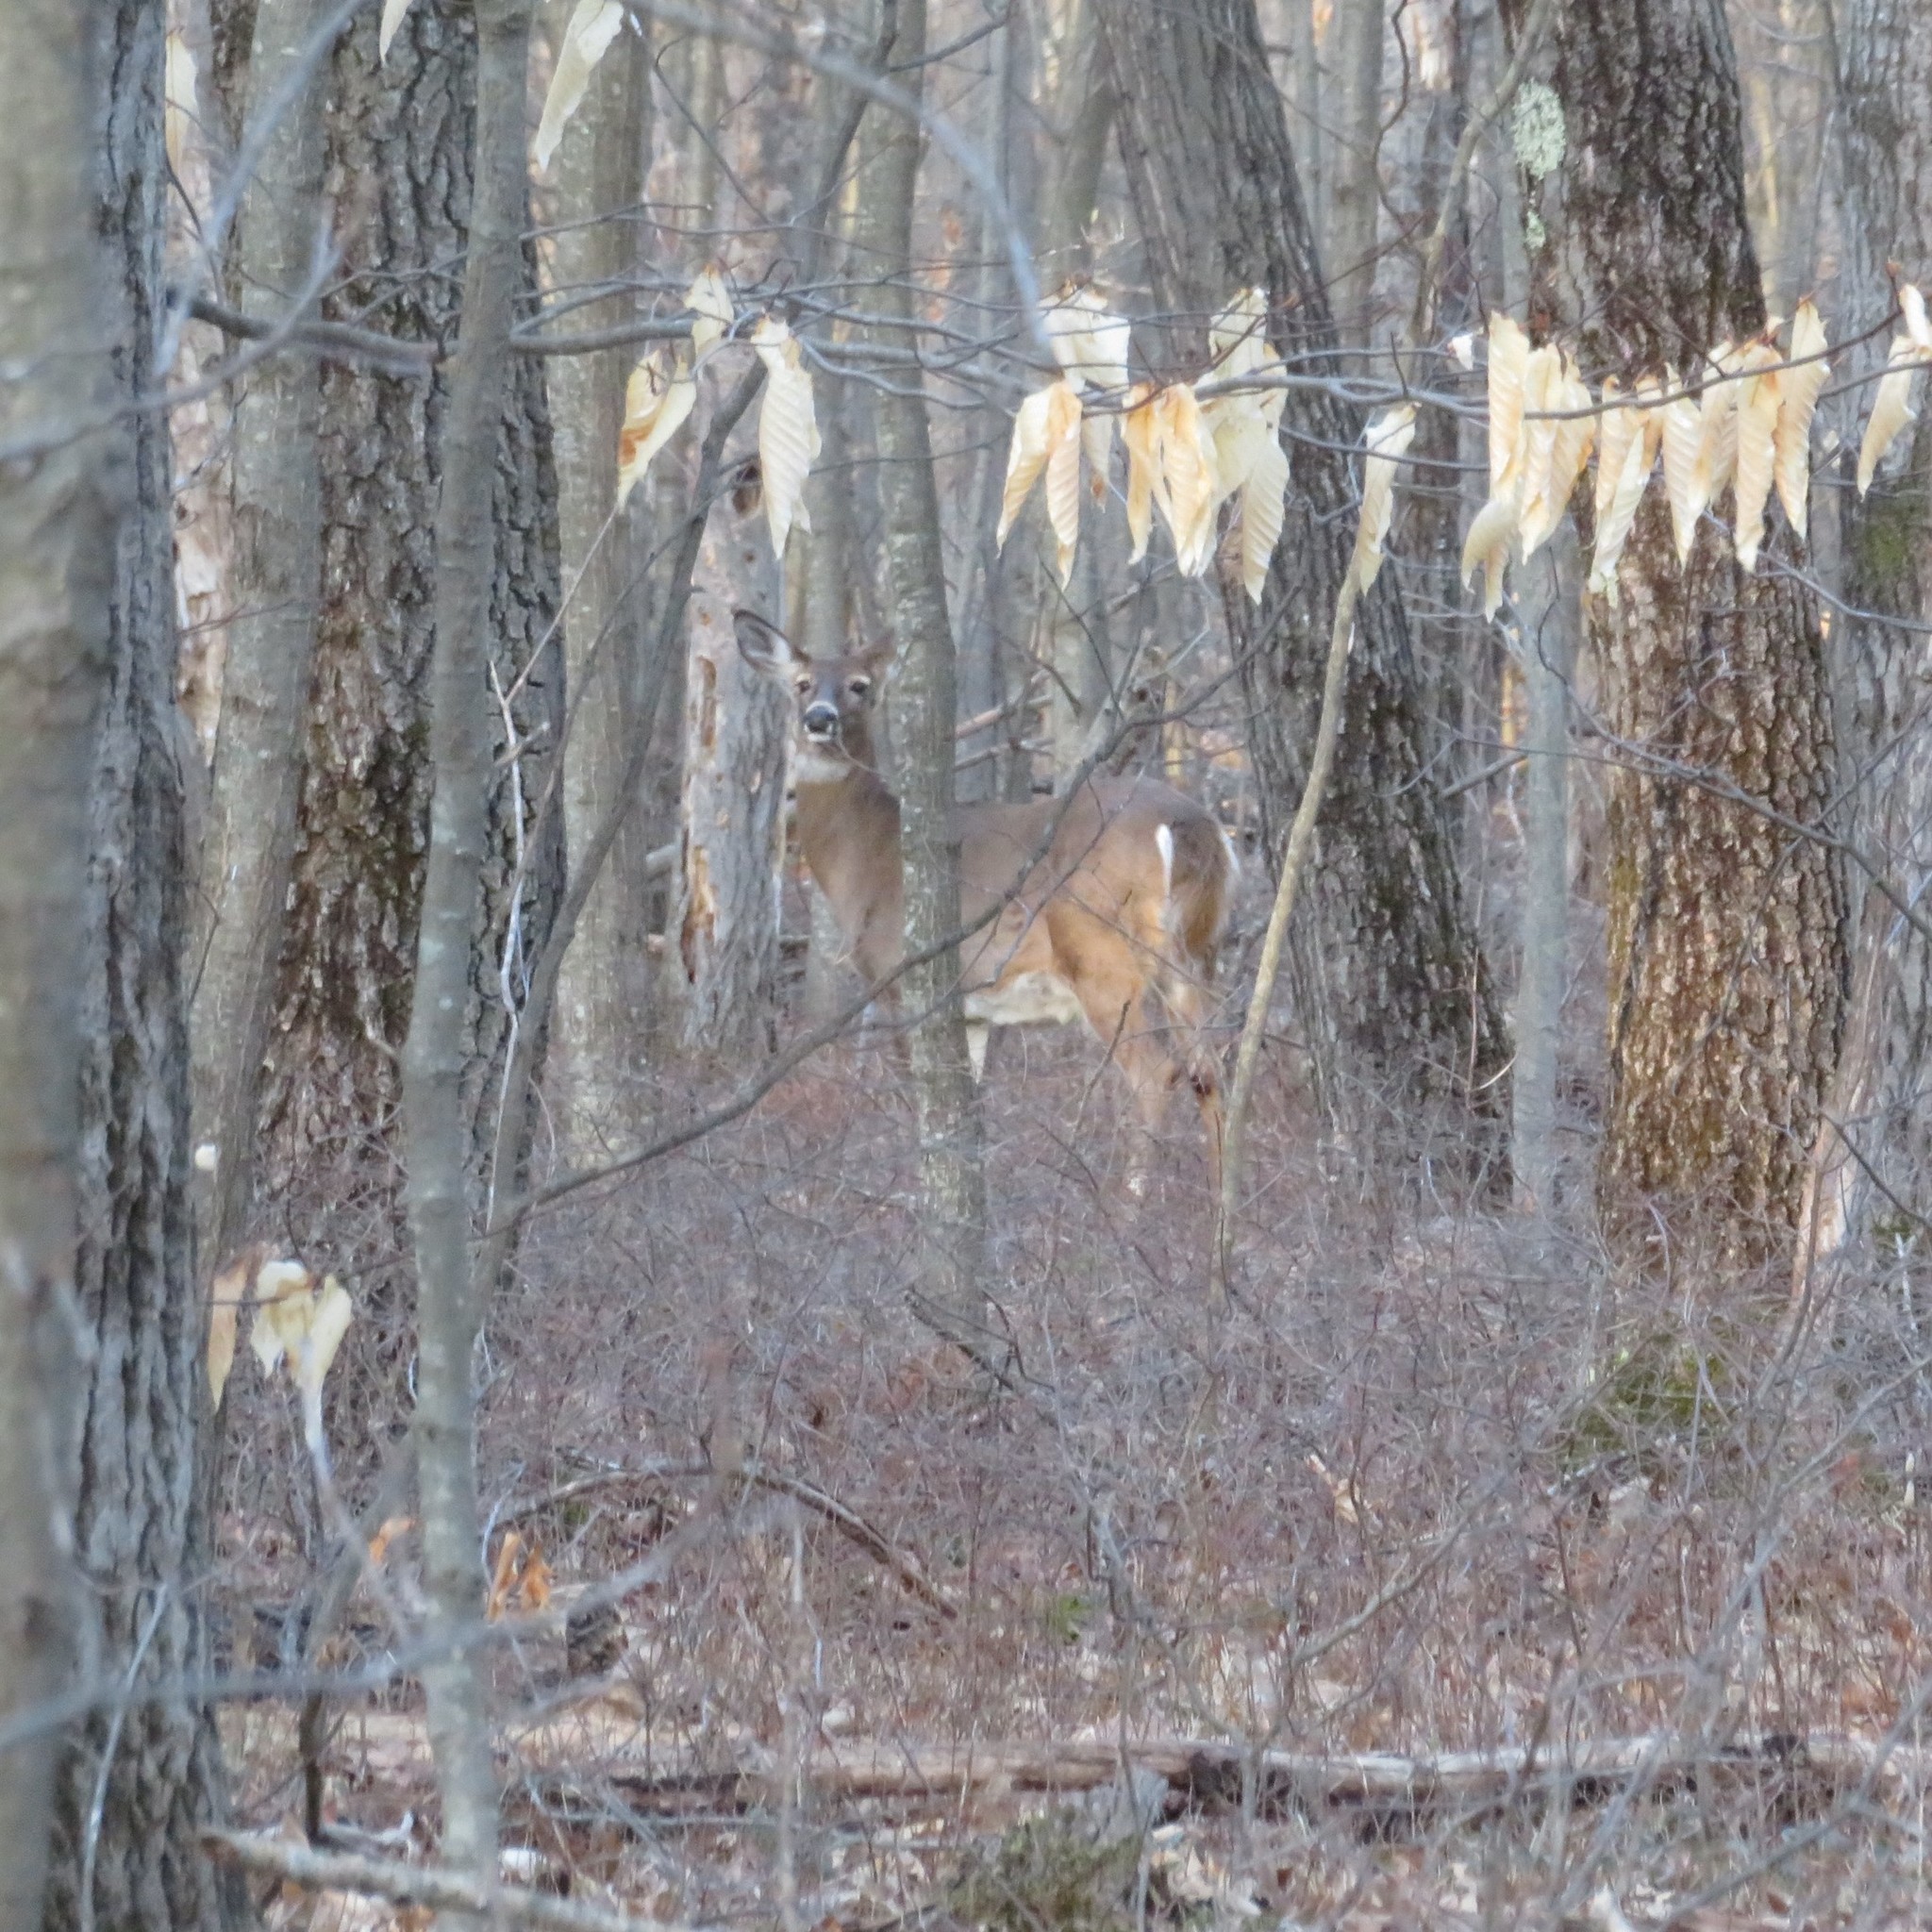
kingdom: Animalia
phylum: Chordata
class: Mammalia
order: Artiodactyla
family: Cervidae
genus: Odocoileus
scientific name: Odocoileus virginianus
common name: White-tailed deer
